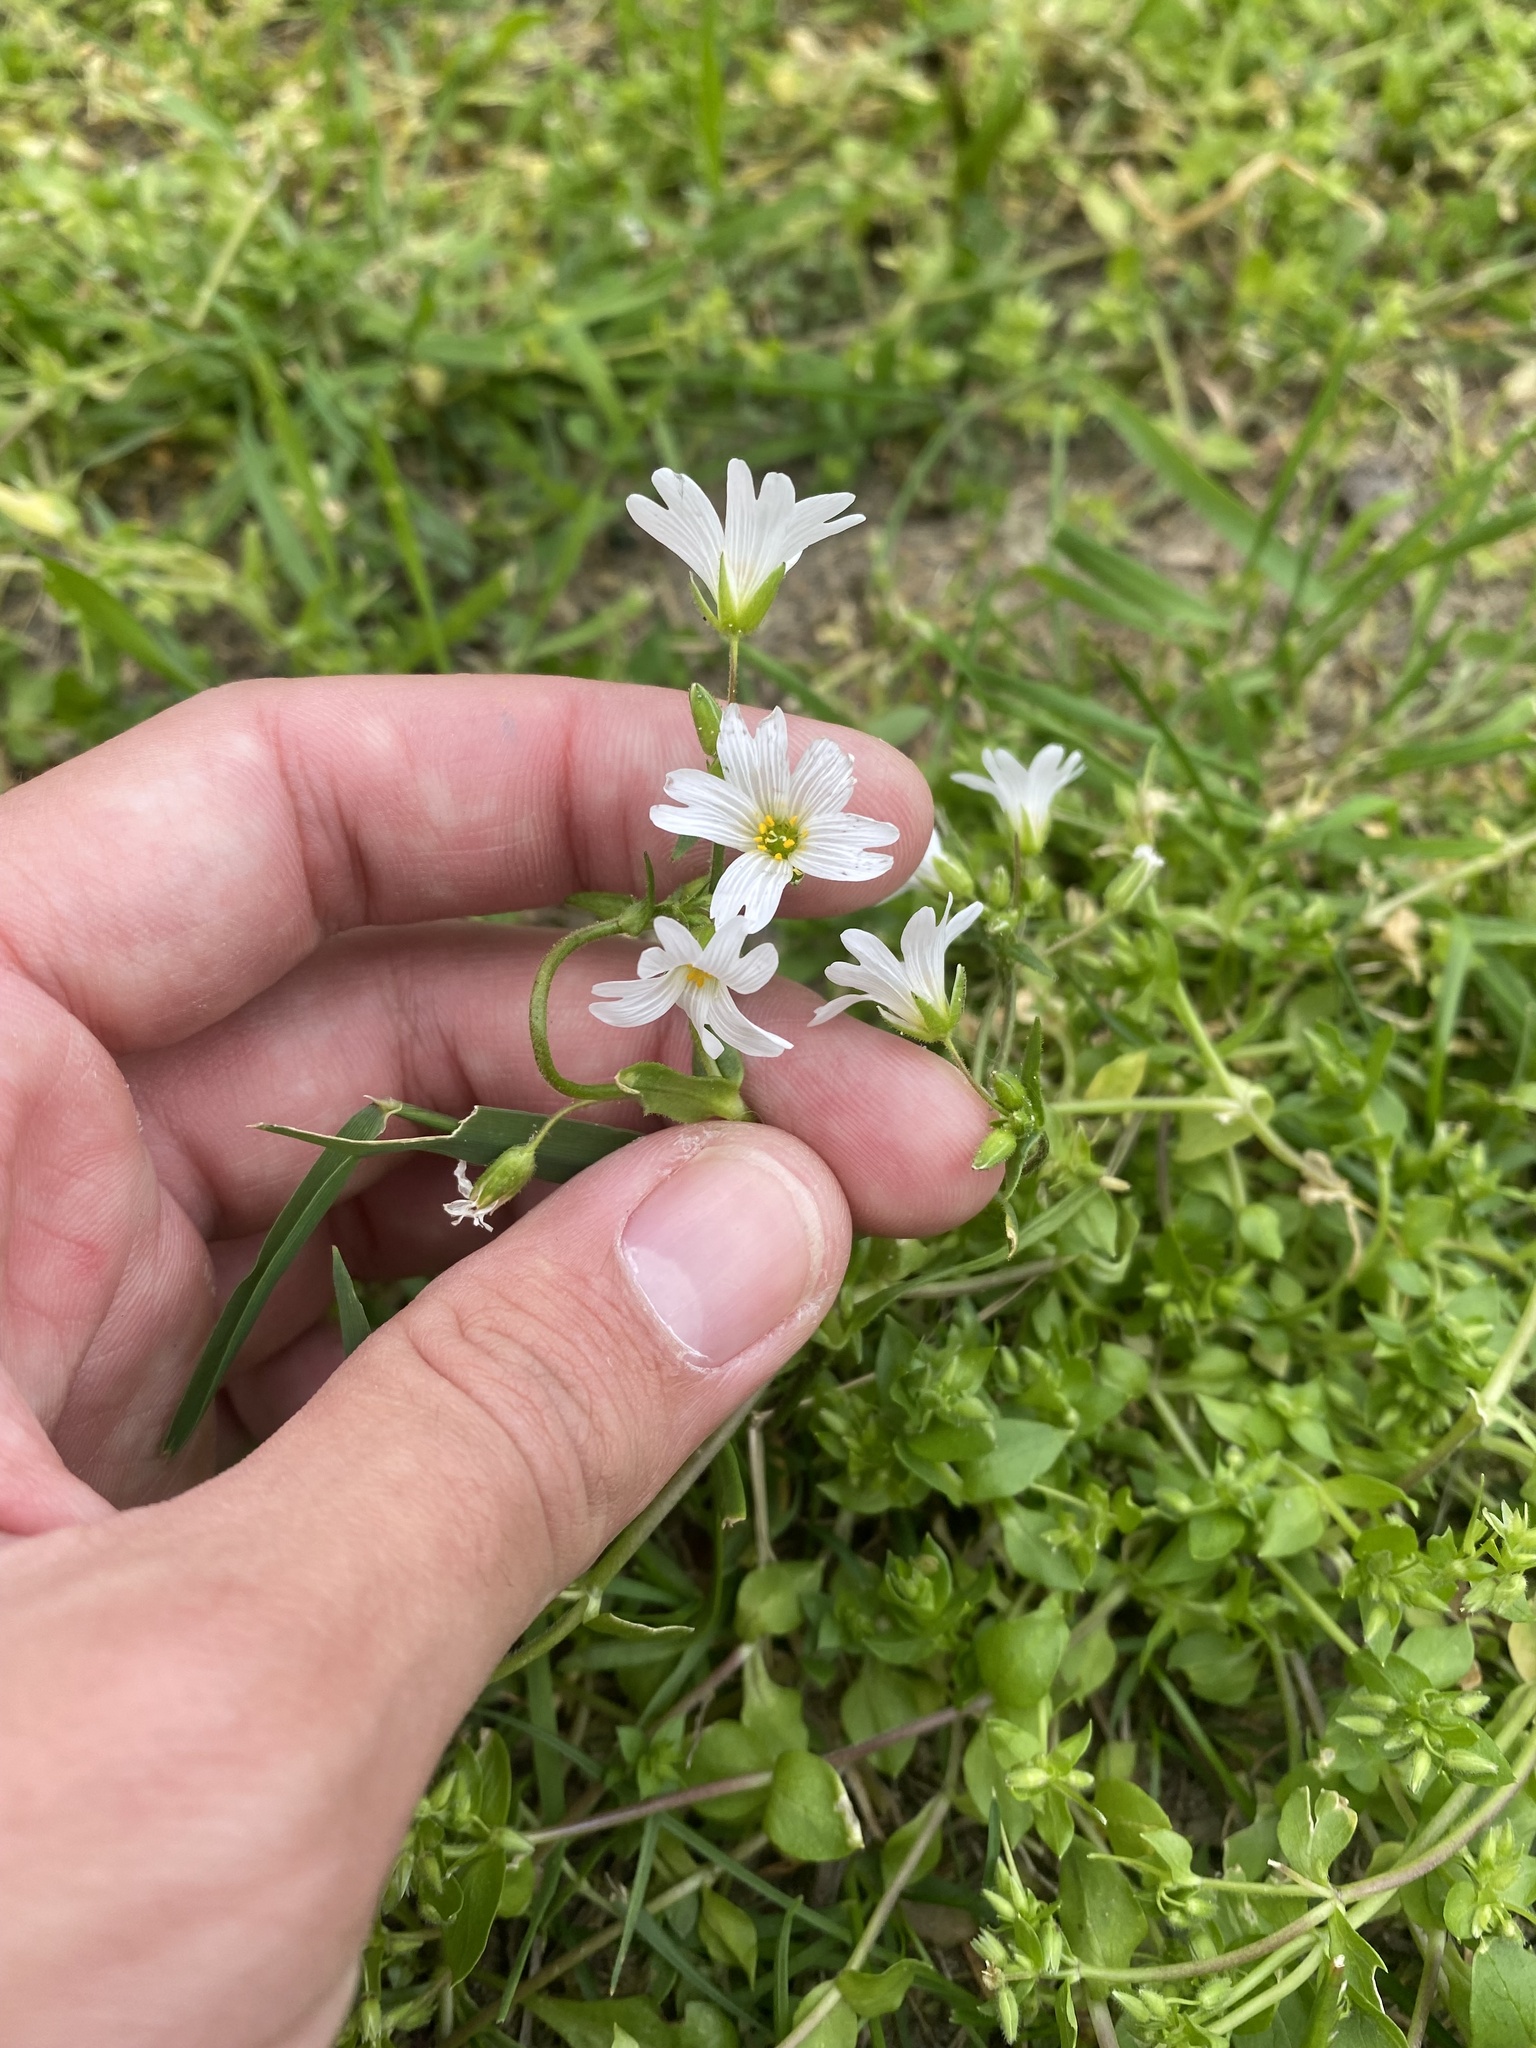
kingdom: Plantae
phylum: Tracheophyta
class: Magnoliopsida
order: Caryophyllales
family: Caryophyllaceae
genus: Dichodon
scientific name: Dichodon viscidum
